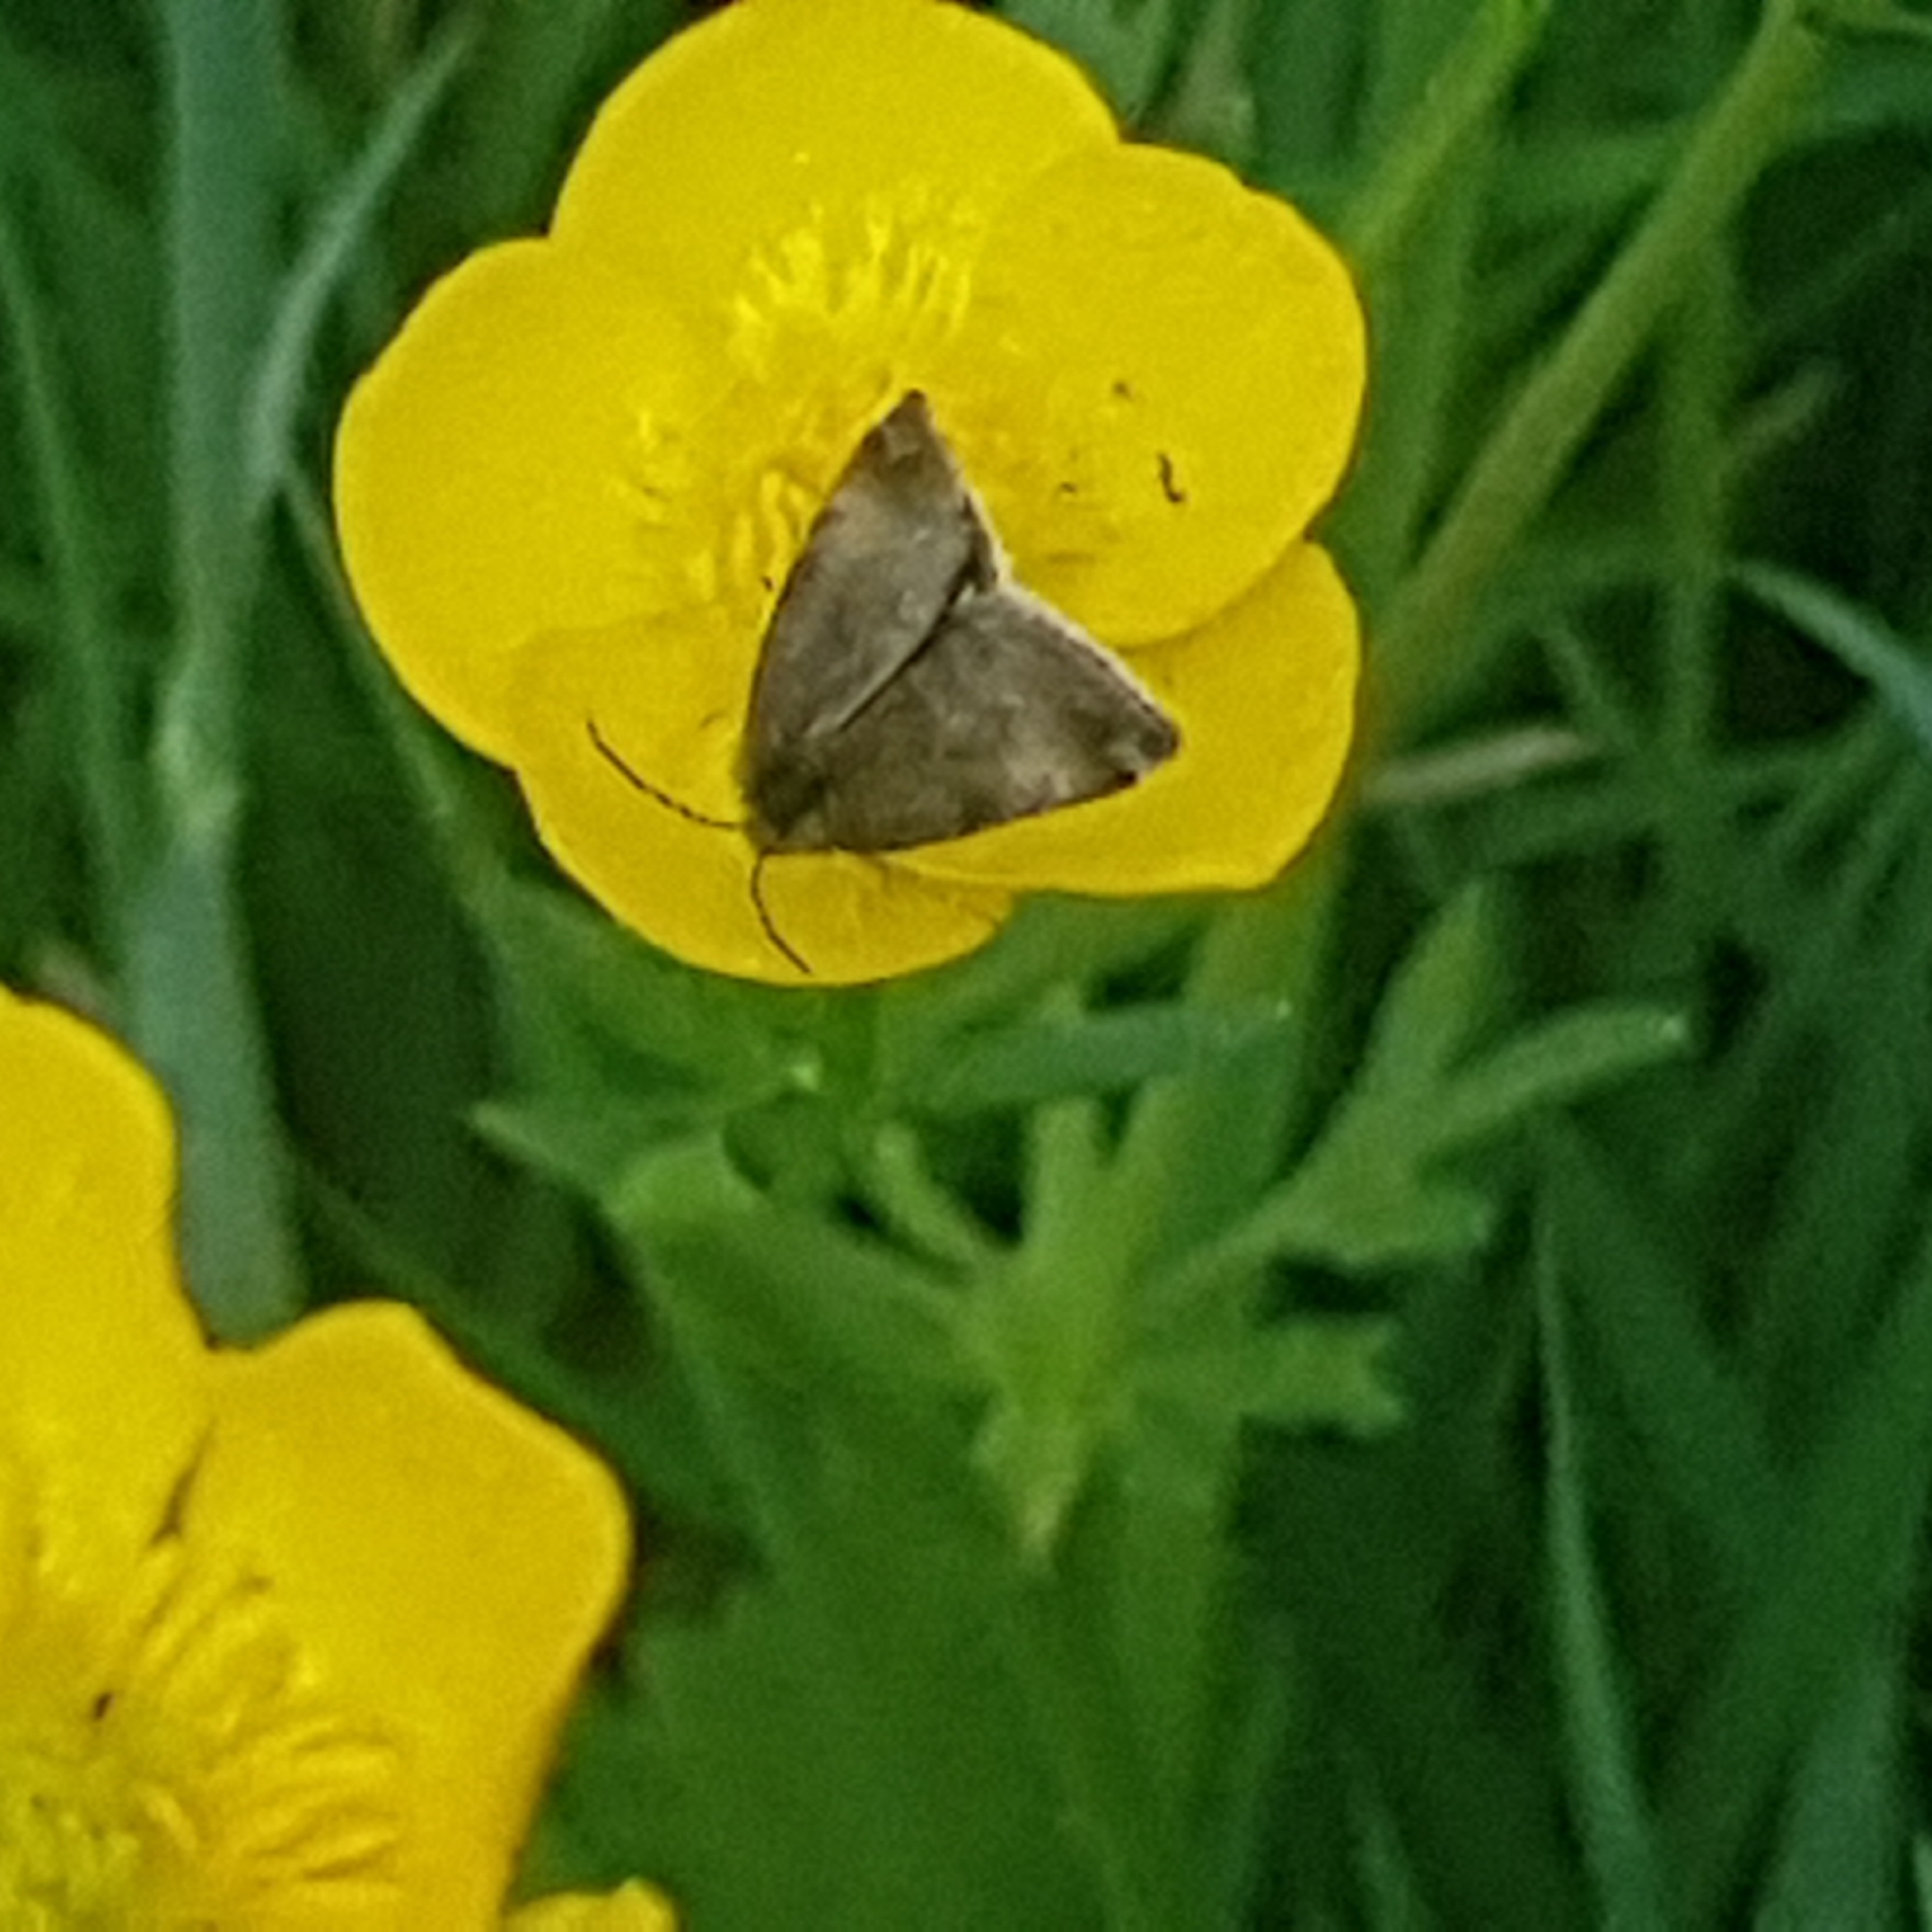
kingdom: Animalia
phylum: Arthropoda
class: Insecta
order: Lepidoptera
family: Noctuidae
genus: Panemeria
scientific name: Panemeria tenebrata
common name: Small yellow underwing
